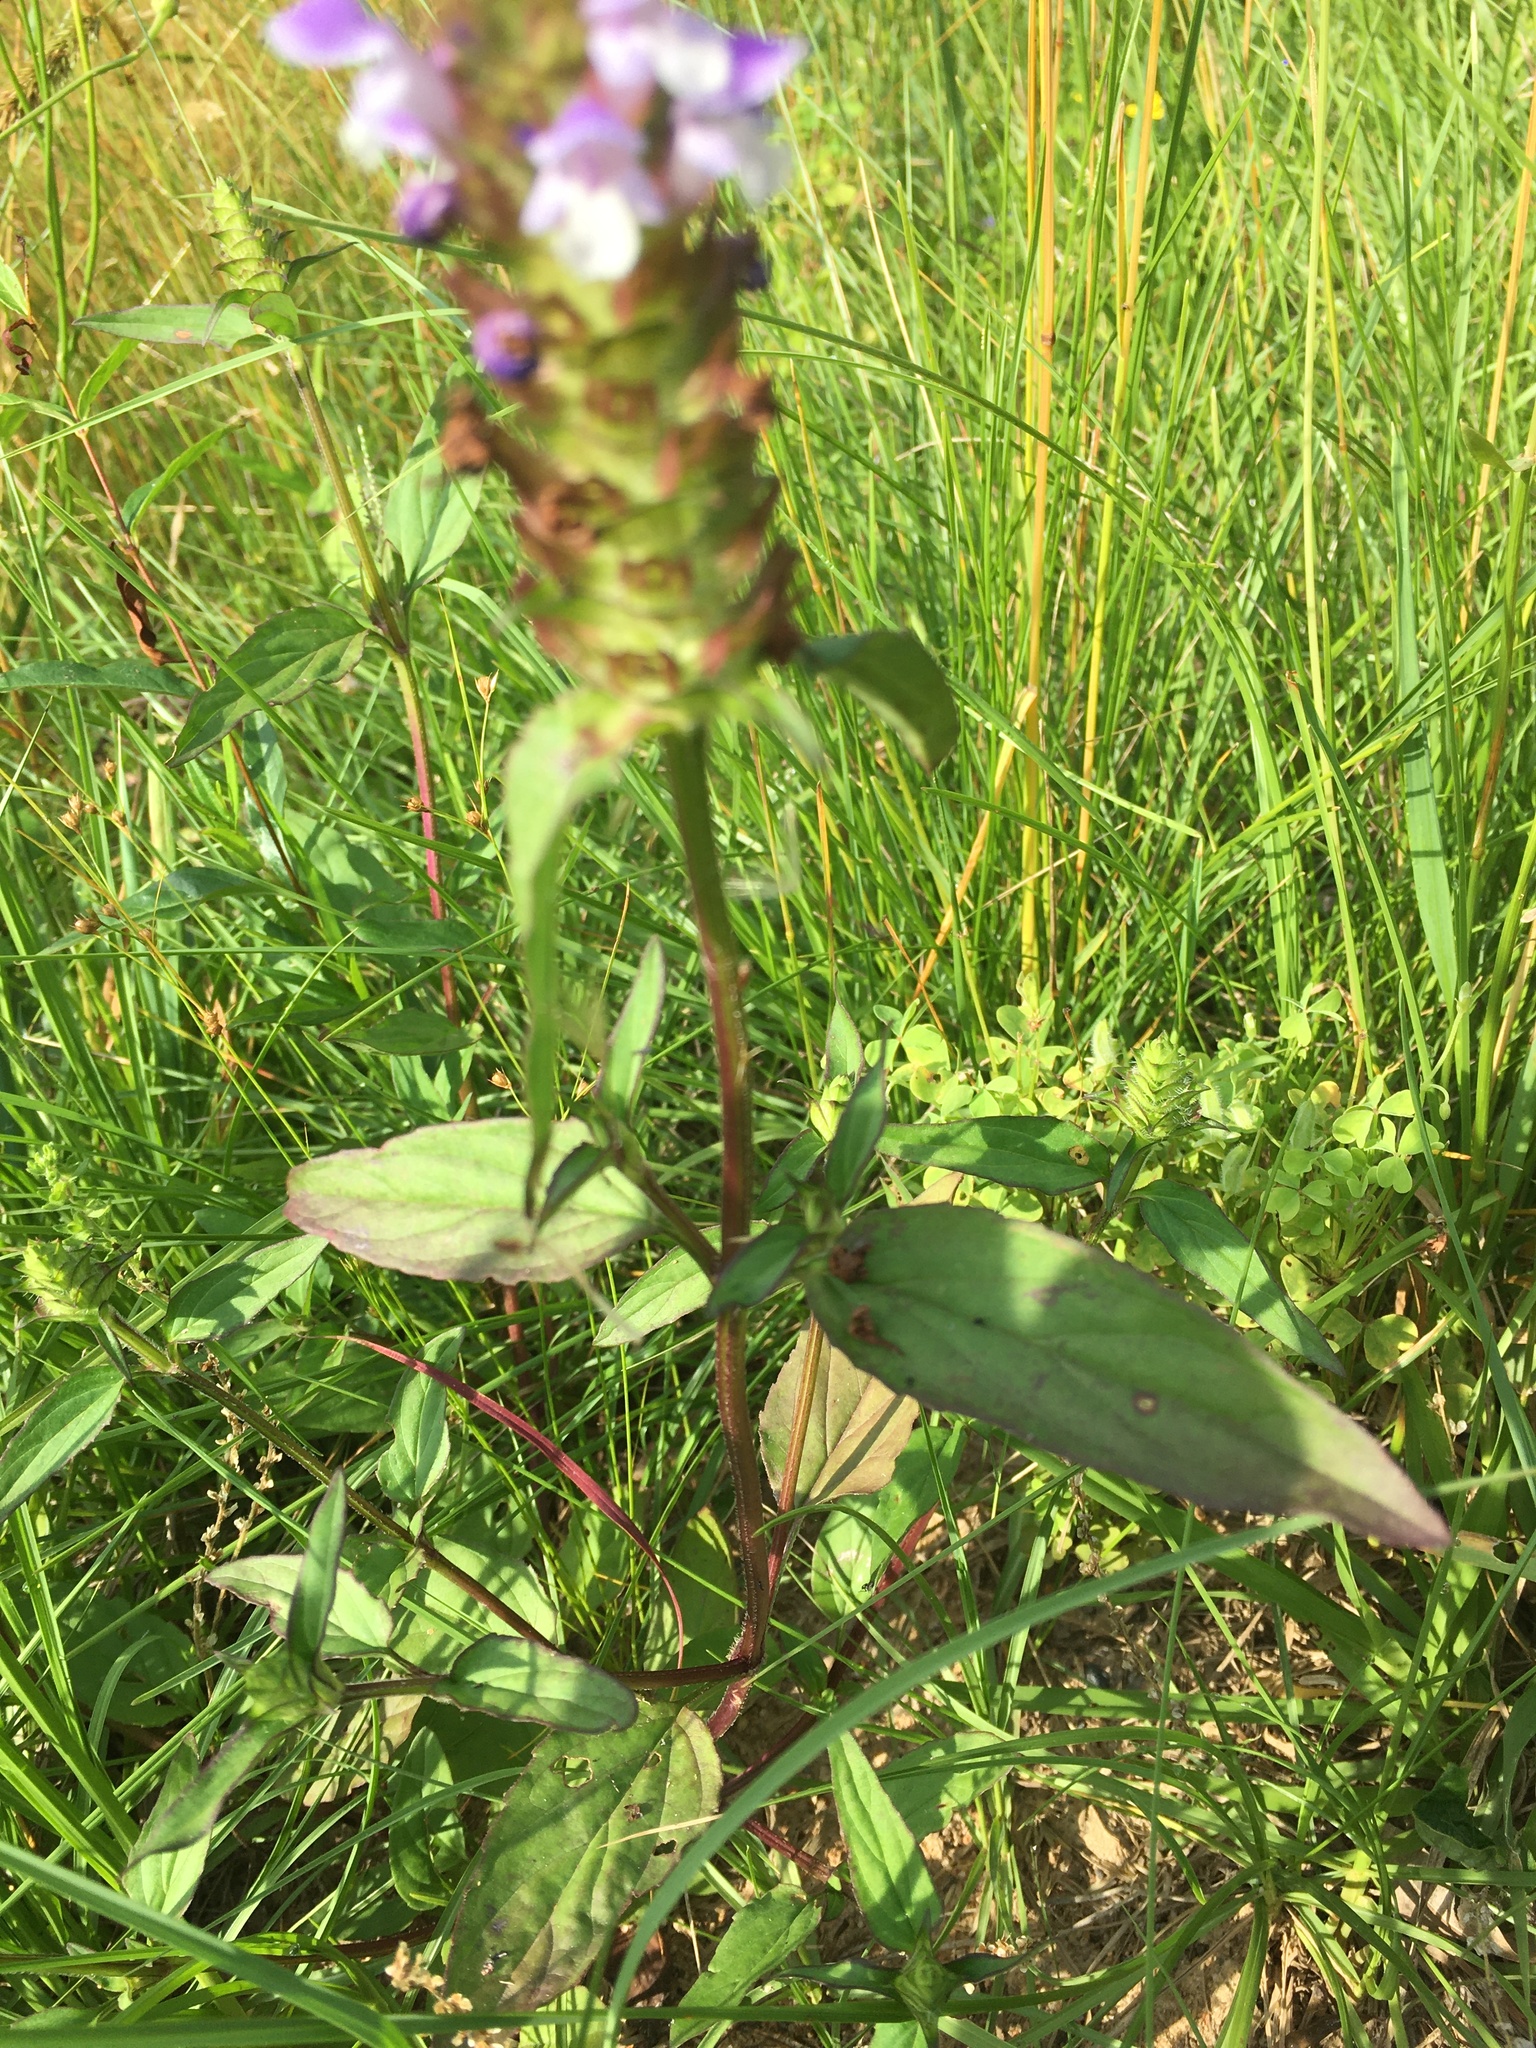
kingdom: Plantae
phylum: Tracheophyta
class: Magnoliopsida
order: Lamiales
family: Lamiaceae
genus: Prunella
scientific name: Prunella vulgaris
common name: Heal-all
